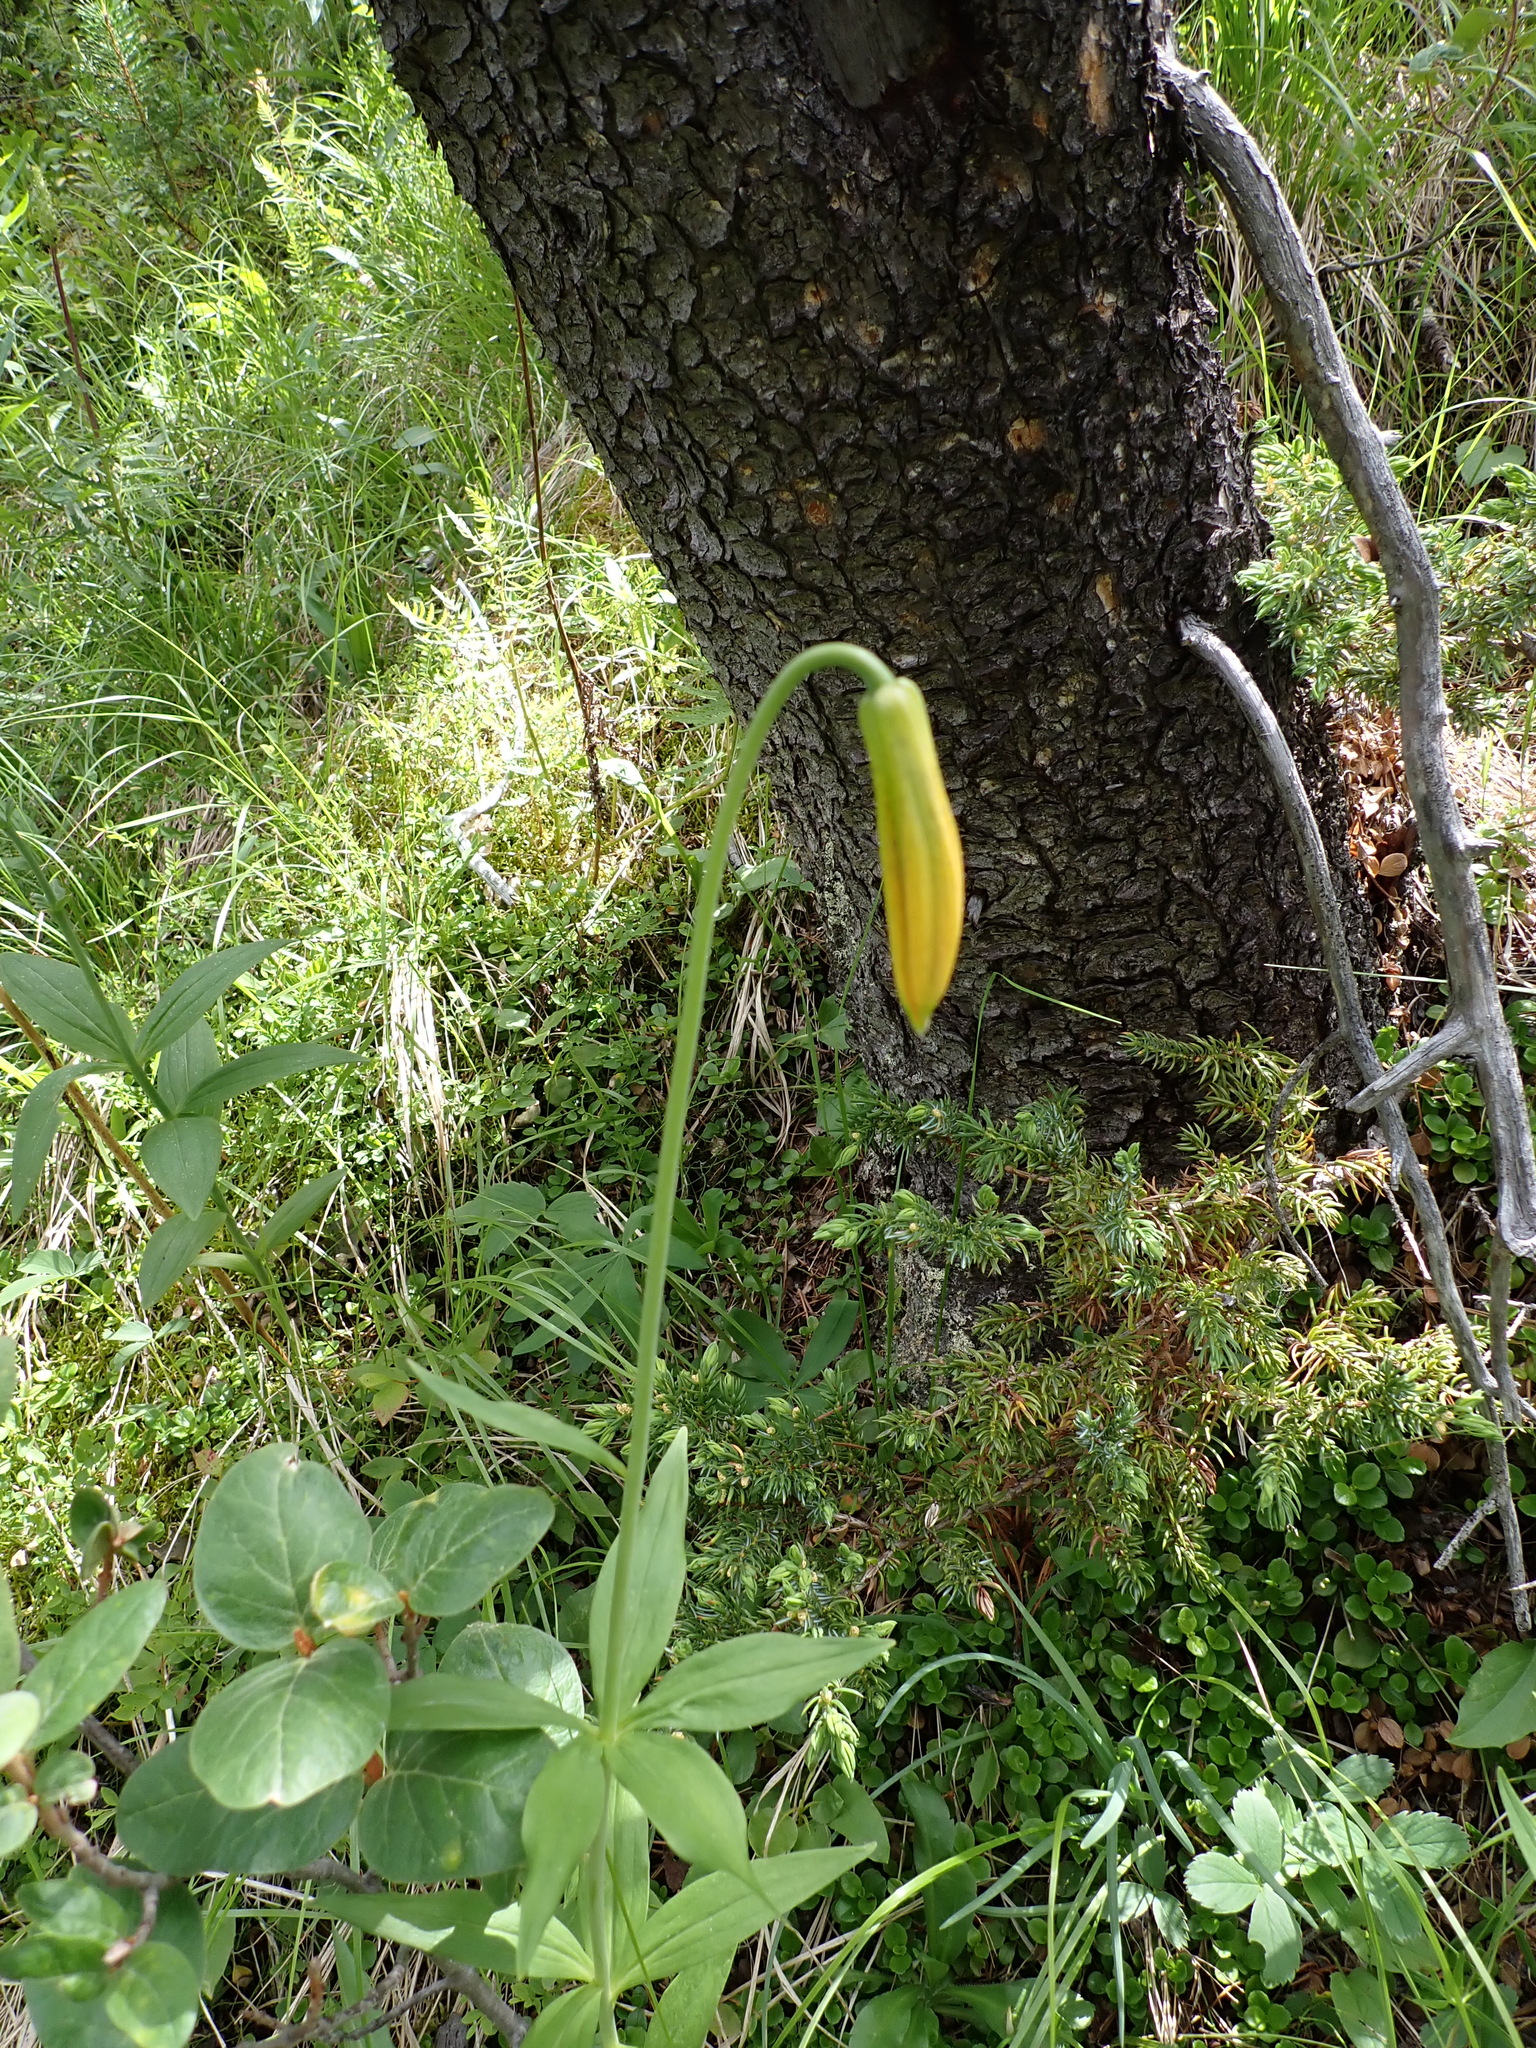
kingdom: Plantae
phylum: Tracheophyta
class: Liliopsida
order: Liliales
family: Liliaceae
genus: Lilium
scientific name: Lilium columbianum
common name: Columbia lily
